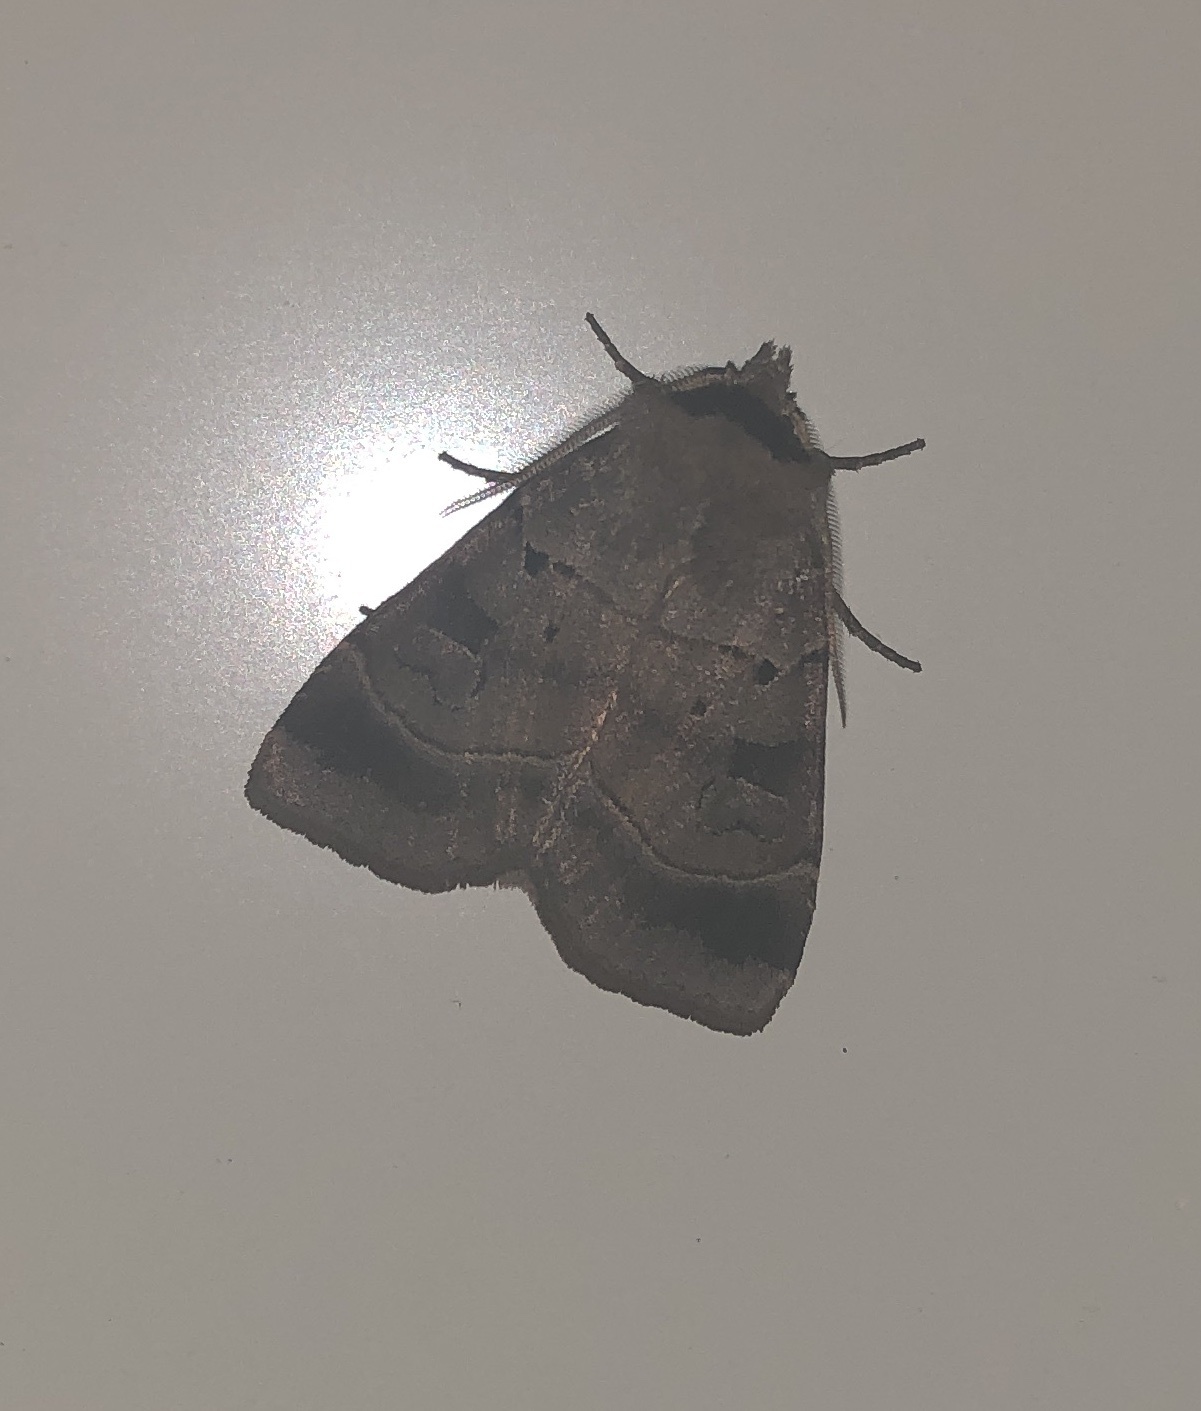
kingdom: Animalia
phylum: Arthropoda
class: Insecta
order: Lepidoptera
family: Noctuidae
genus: Agnorisma
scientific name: Agnorisma badinodis
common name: Pale-banded dart
